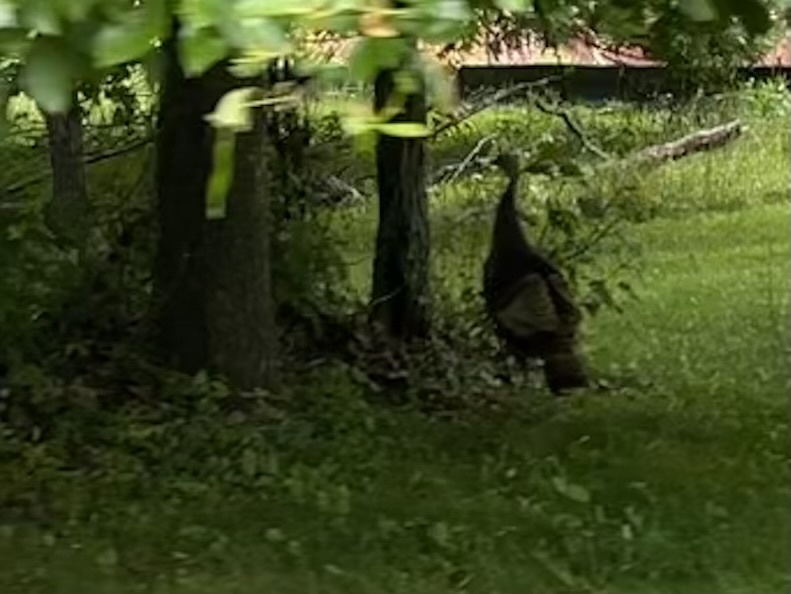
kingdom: Animalia
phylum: Chordata
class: Aves
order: Galliformes
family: Phasianidae
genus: Meleagris
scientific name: Meleagris gallopavo
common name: Wild turkey
